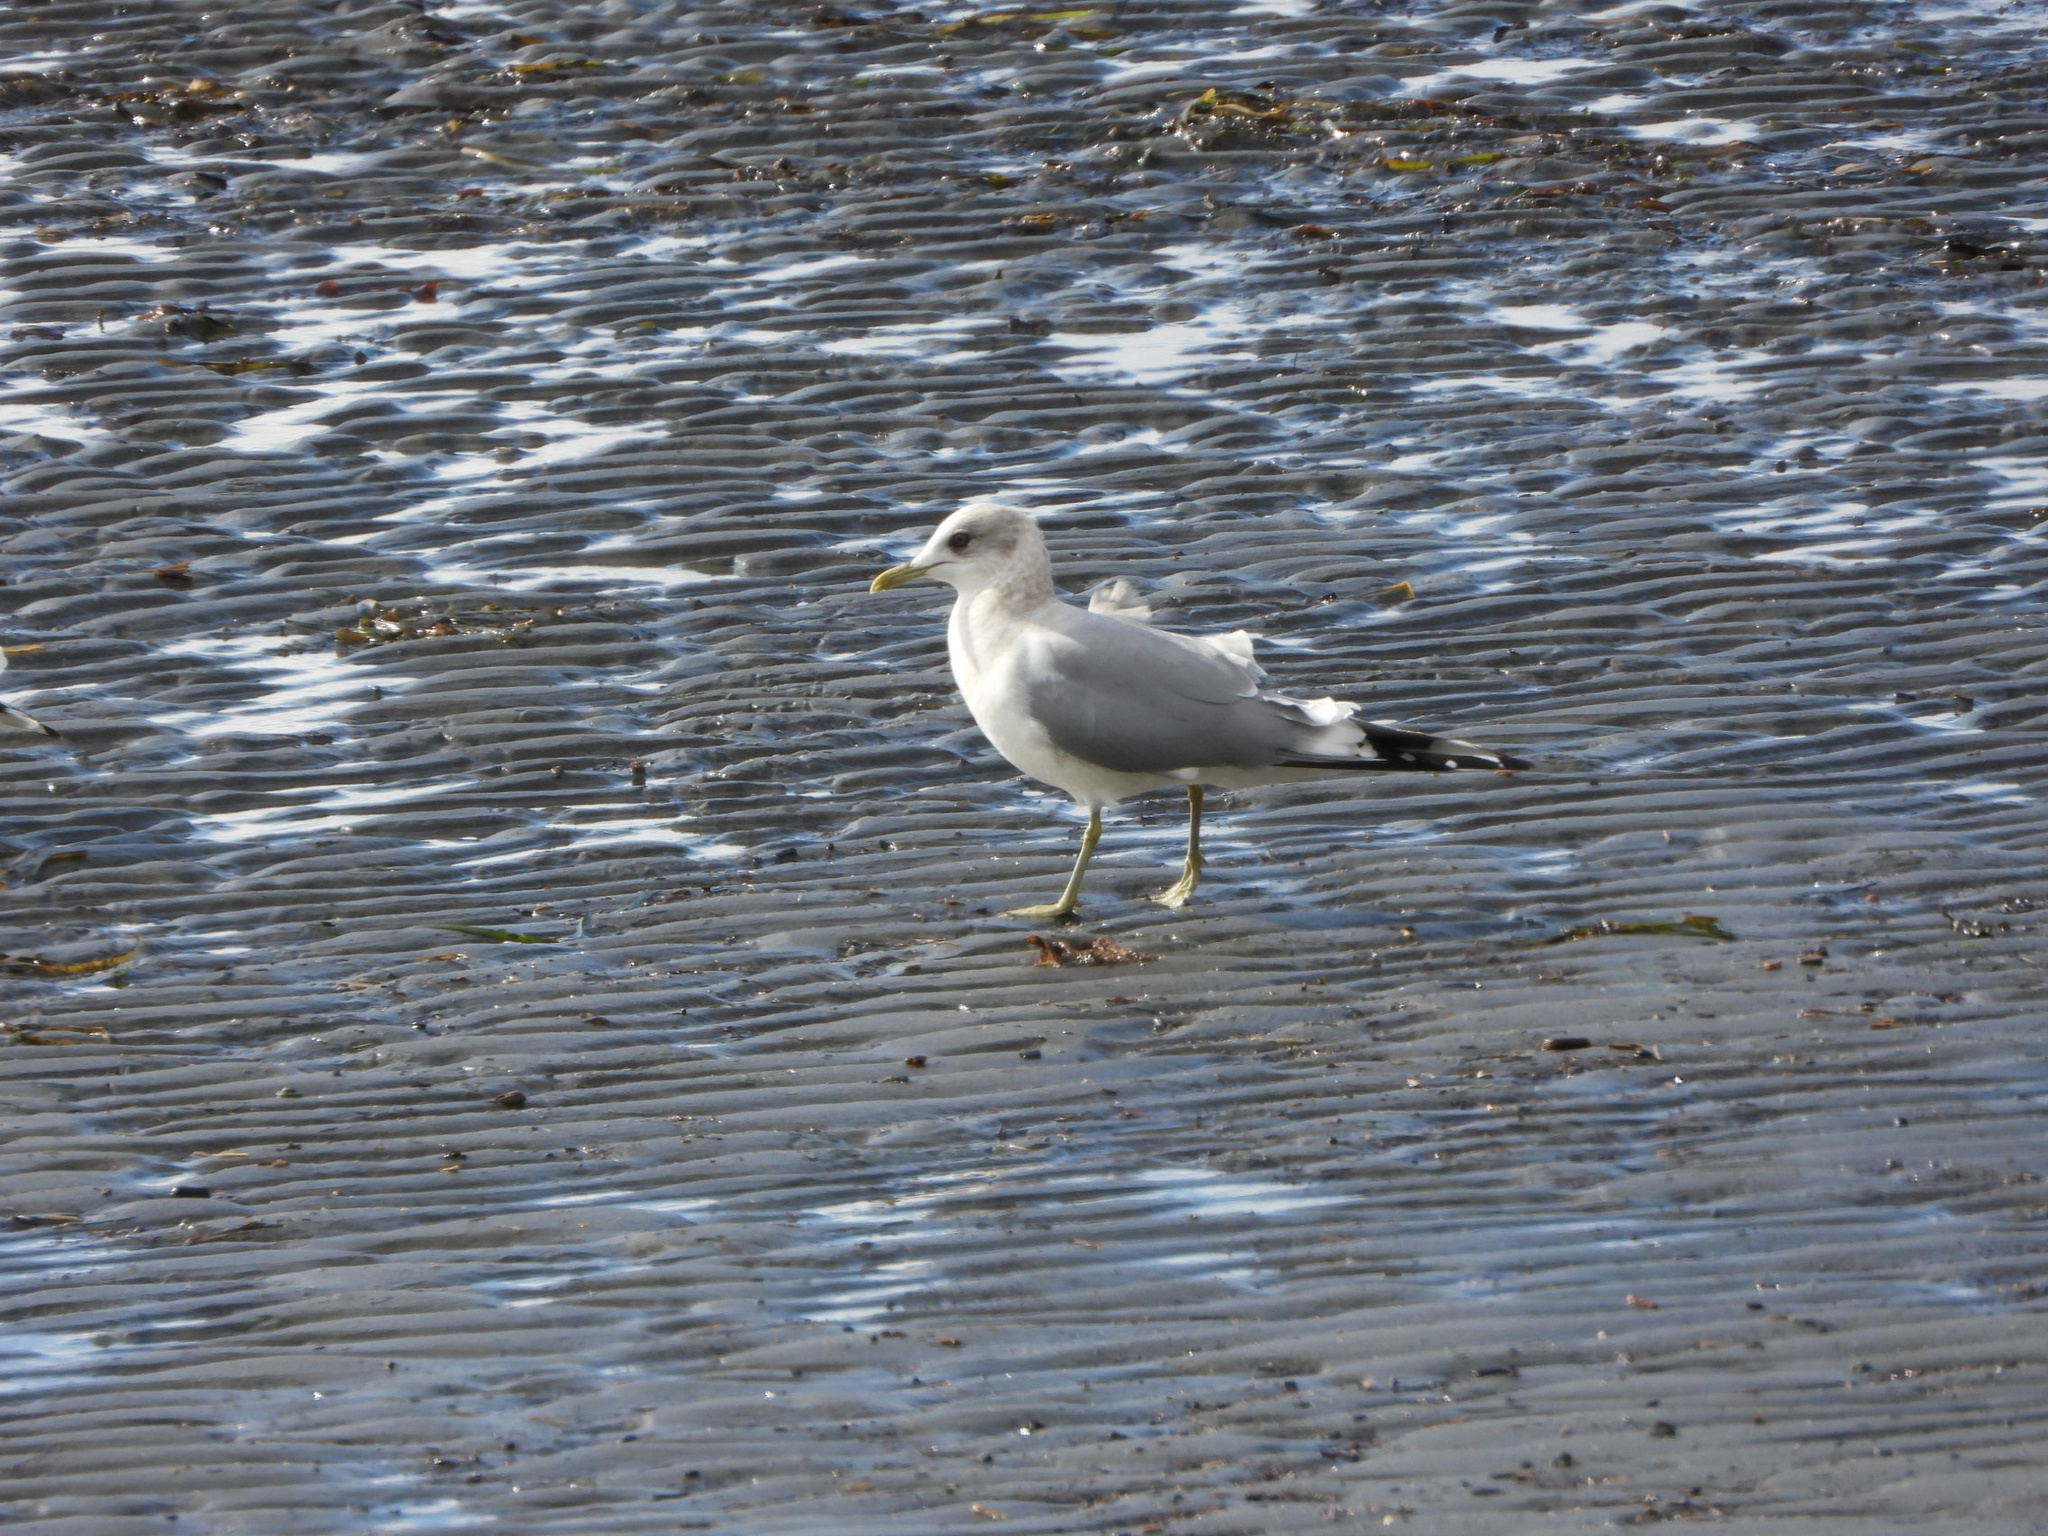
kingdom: Animalia
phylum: Chordata
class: Aves
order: Charadriiformes
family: Laridae
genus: Larus
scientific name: Larus brachyrhynchus
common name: Short-billed gull
